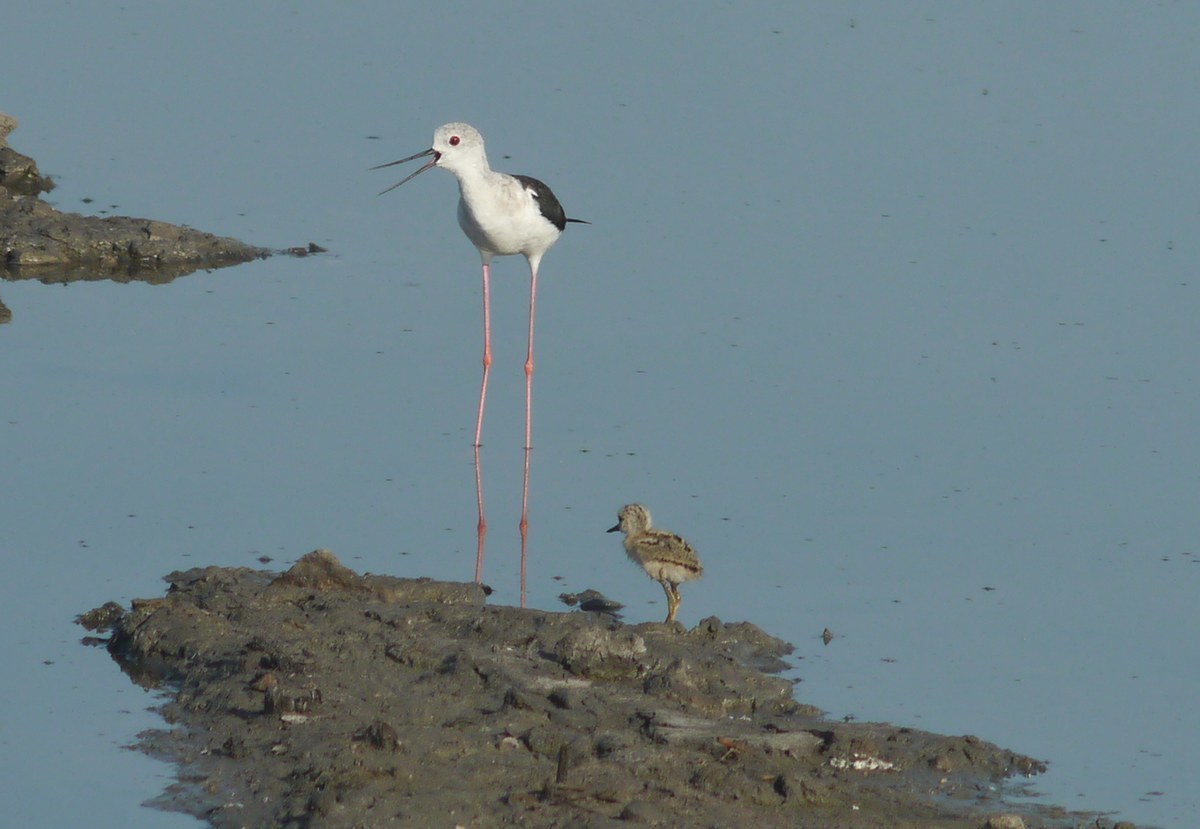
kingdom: Animalia
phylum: Chordata
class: Aves
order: Charadriiformes
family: Recurvirostridae
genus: Himantopus
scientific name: Himantopus himantopus
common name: Black-winged stilt
